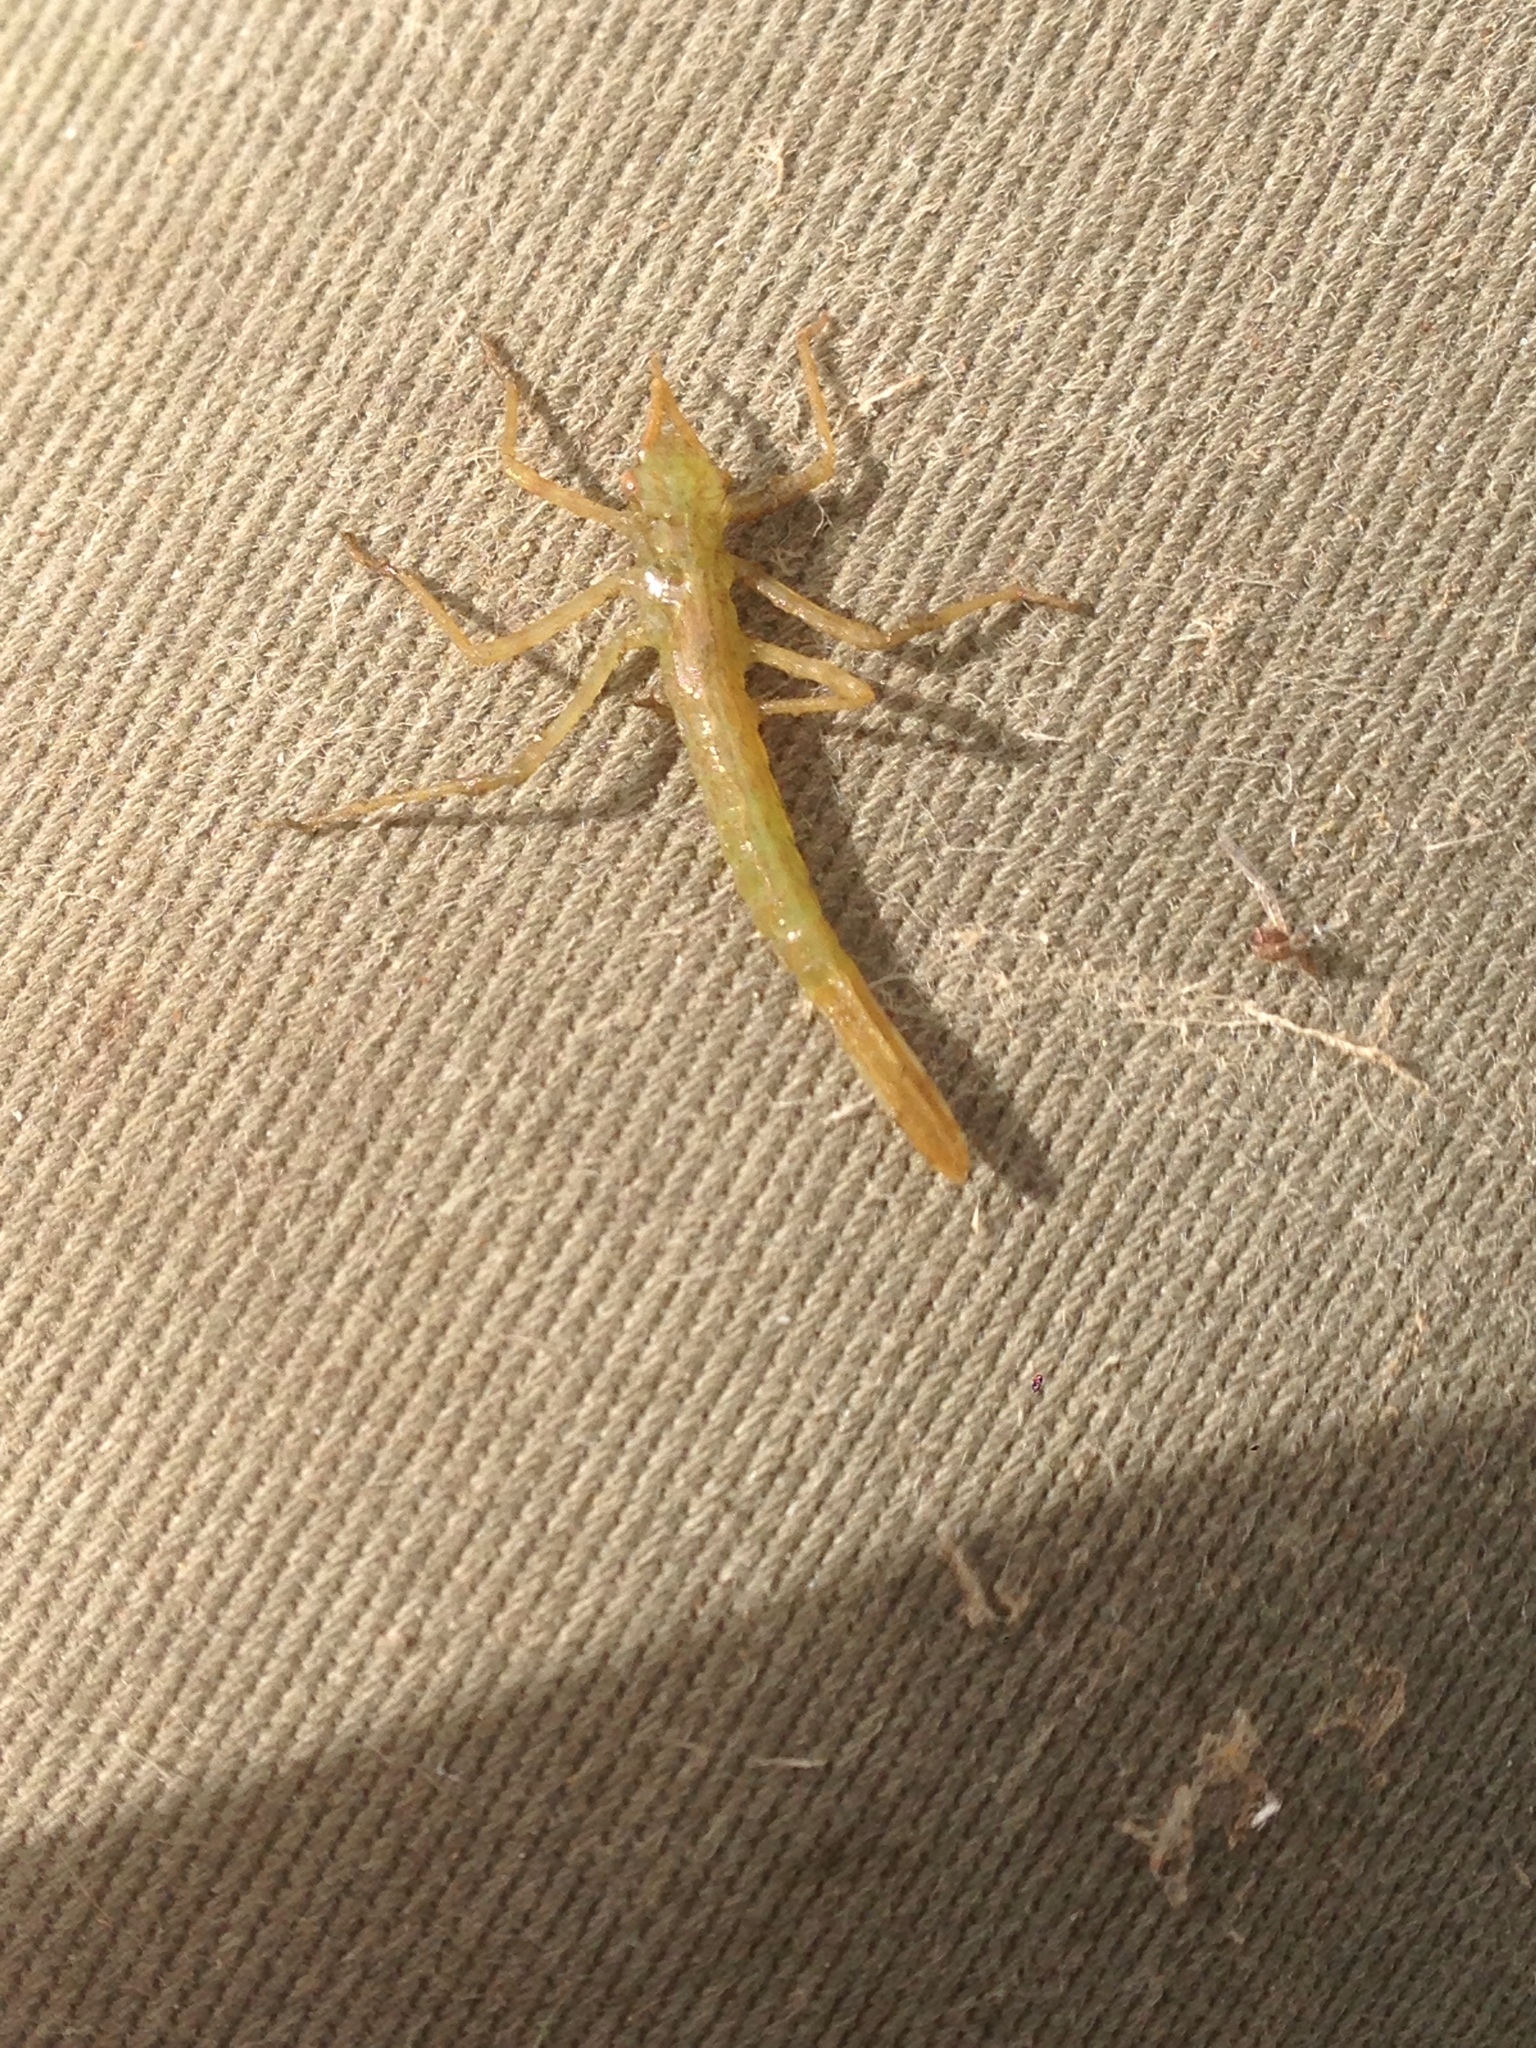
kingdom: Animalia
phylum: Arthropoda
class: Insecta
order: Odonata
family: Calopterygidae
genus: Hetaerina
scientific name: Hetaerina americana
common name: American rubyspot
